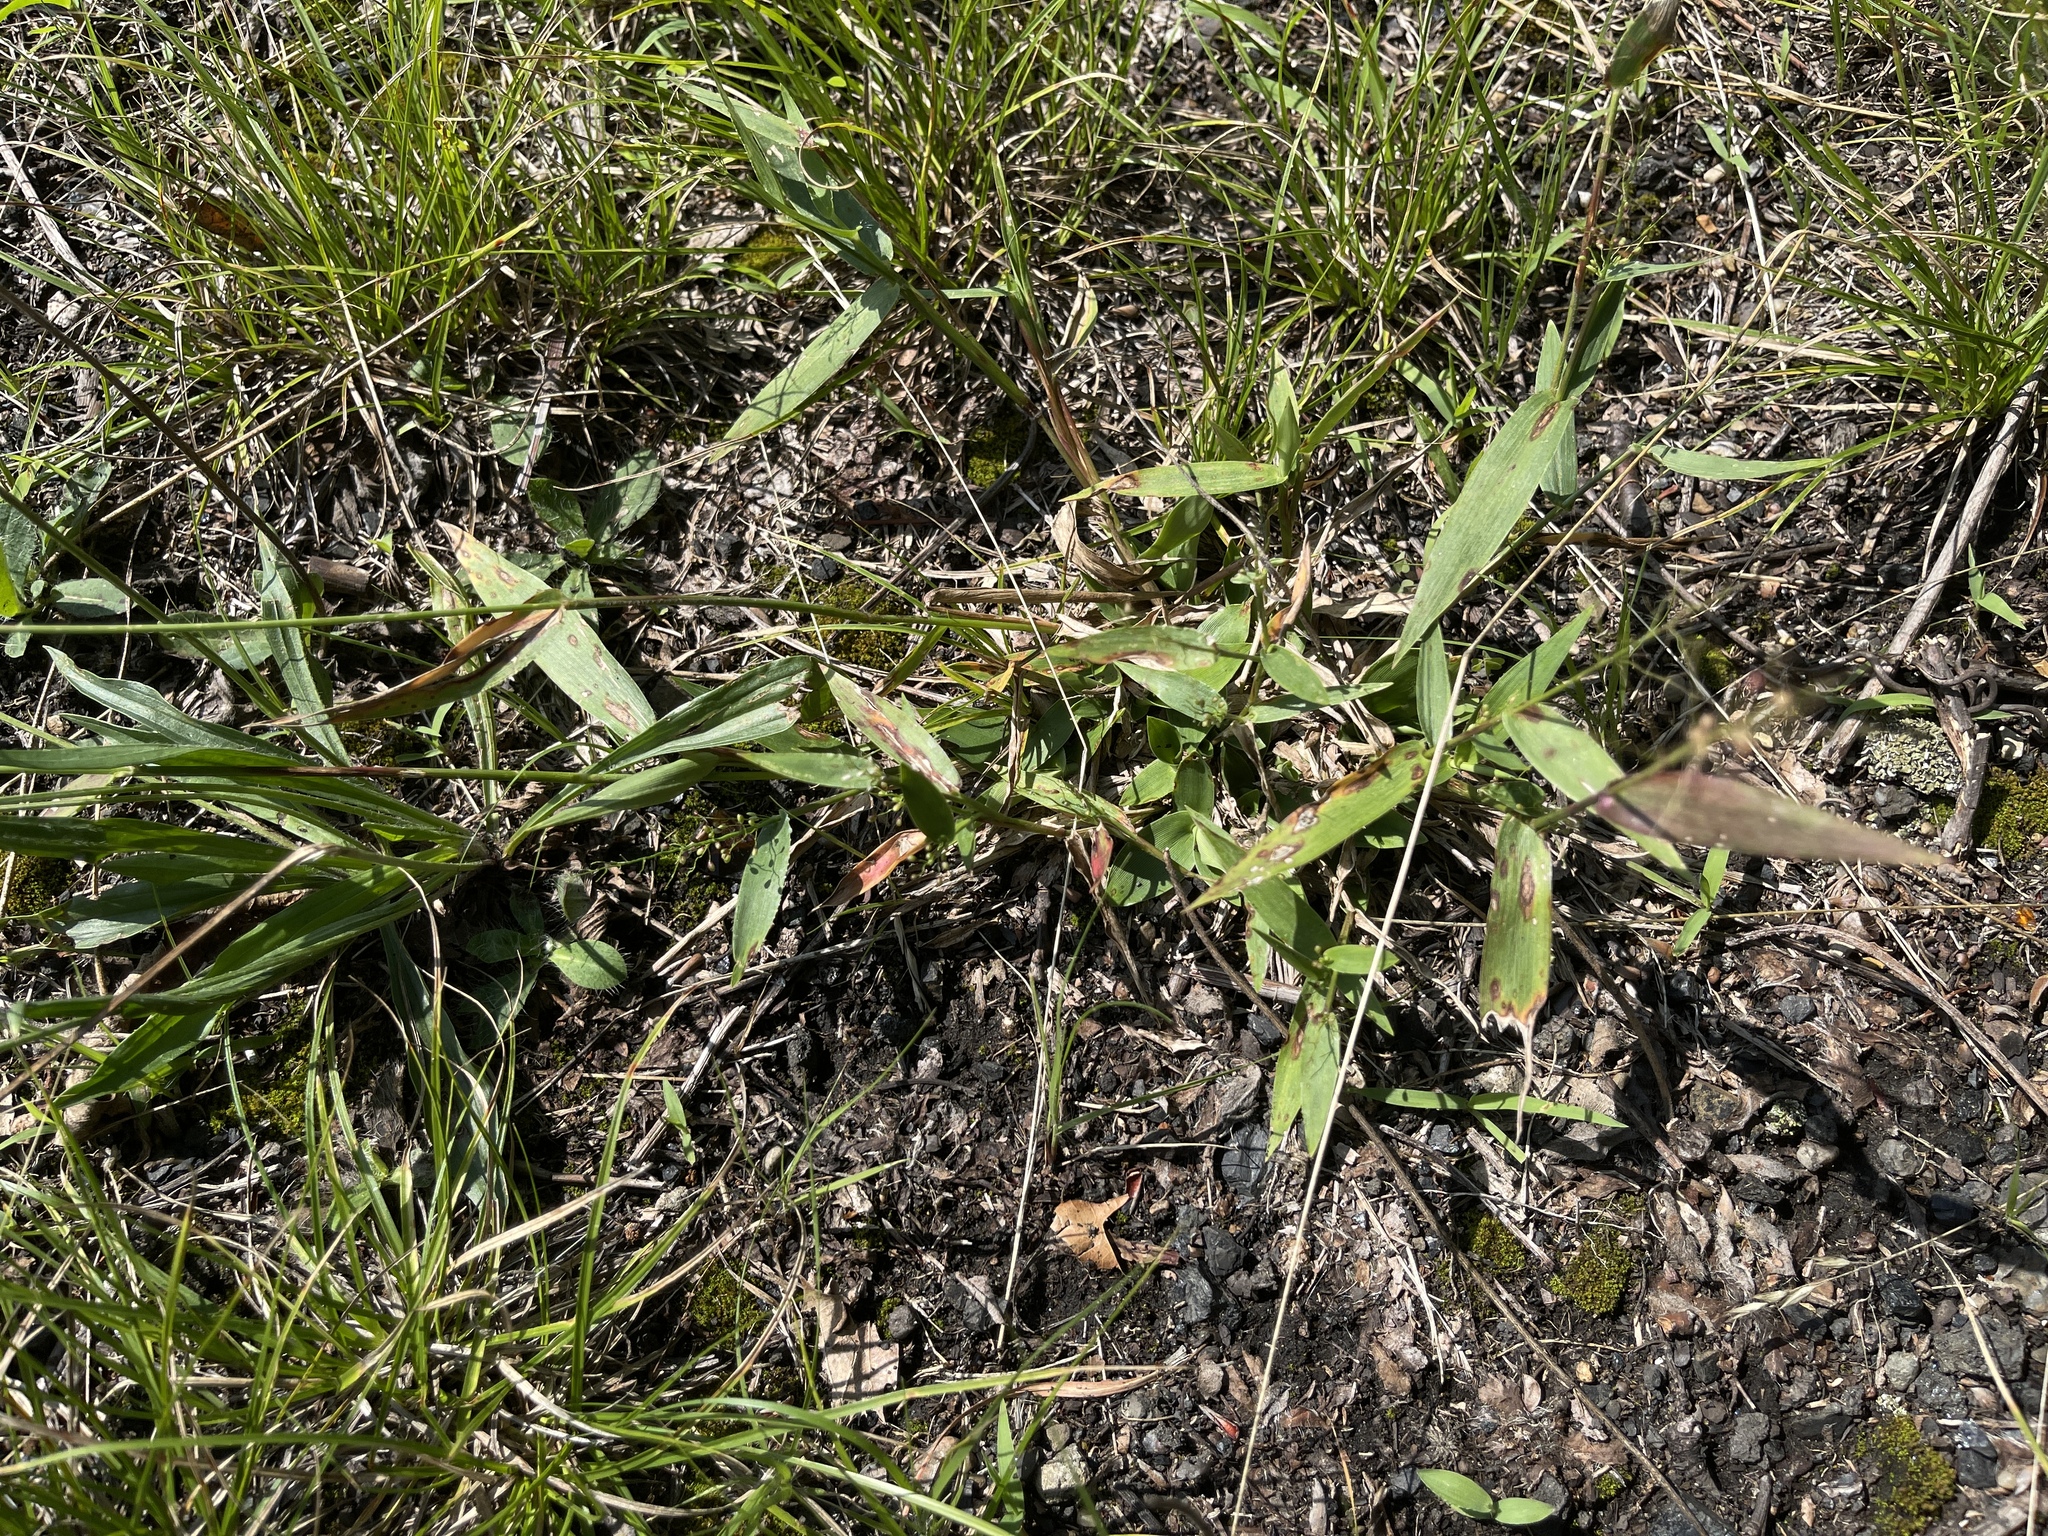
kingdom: Plantae
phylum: Tracheophyta
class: Liliopsida
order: Poales
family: Poaceae
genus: Dichanthelium
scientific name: Dichanthelium sphaerocarpon
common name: Round-fruited panicgrass
